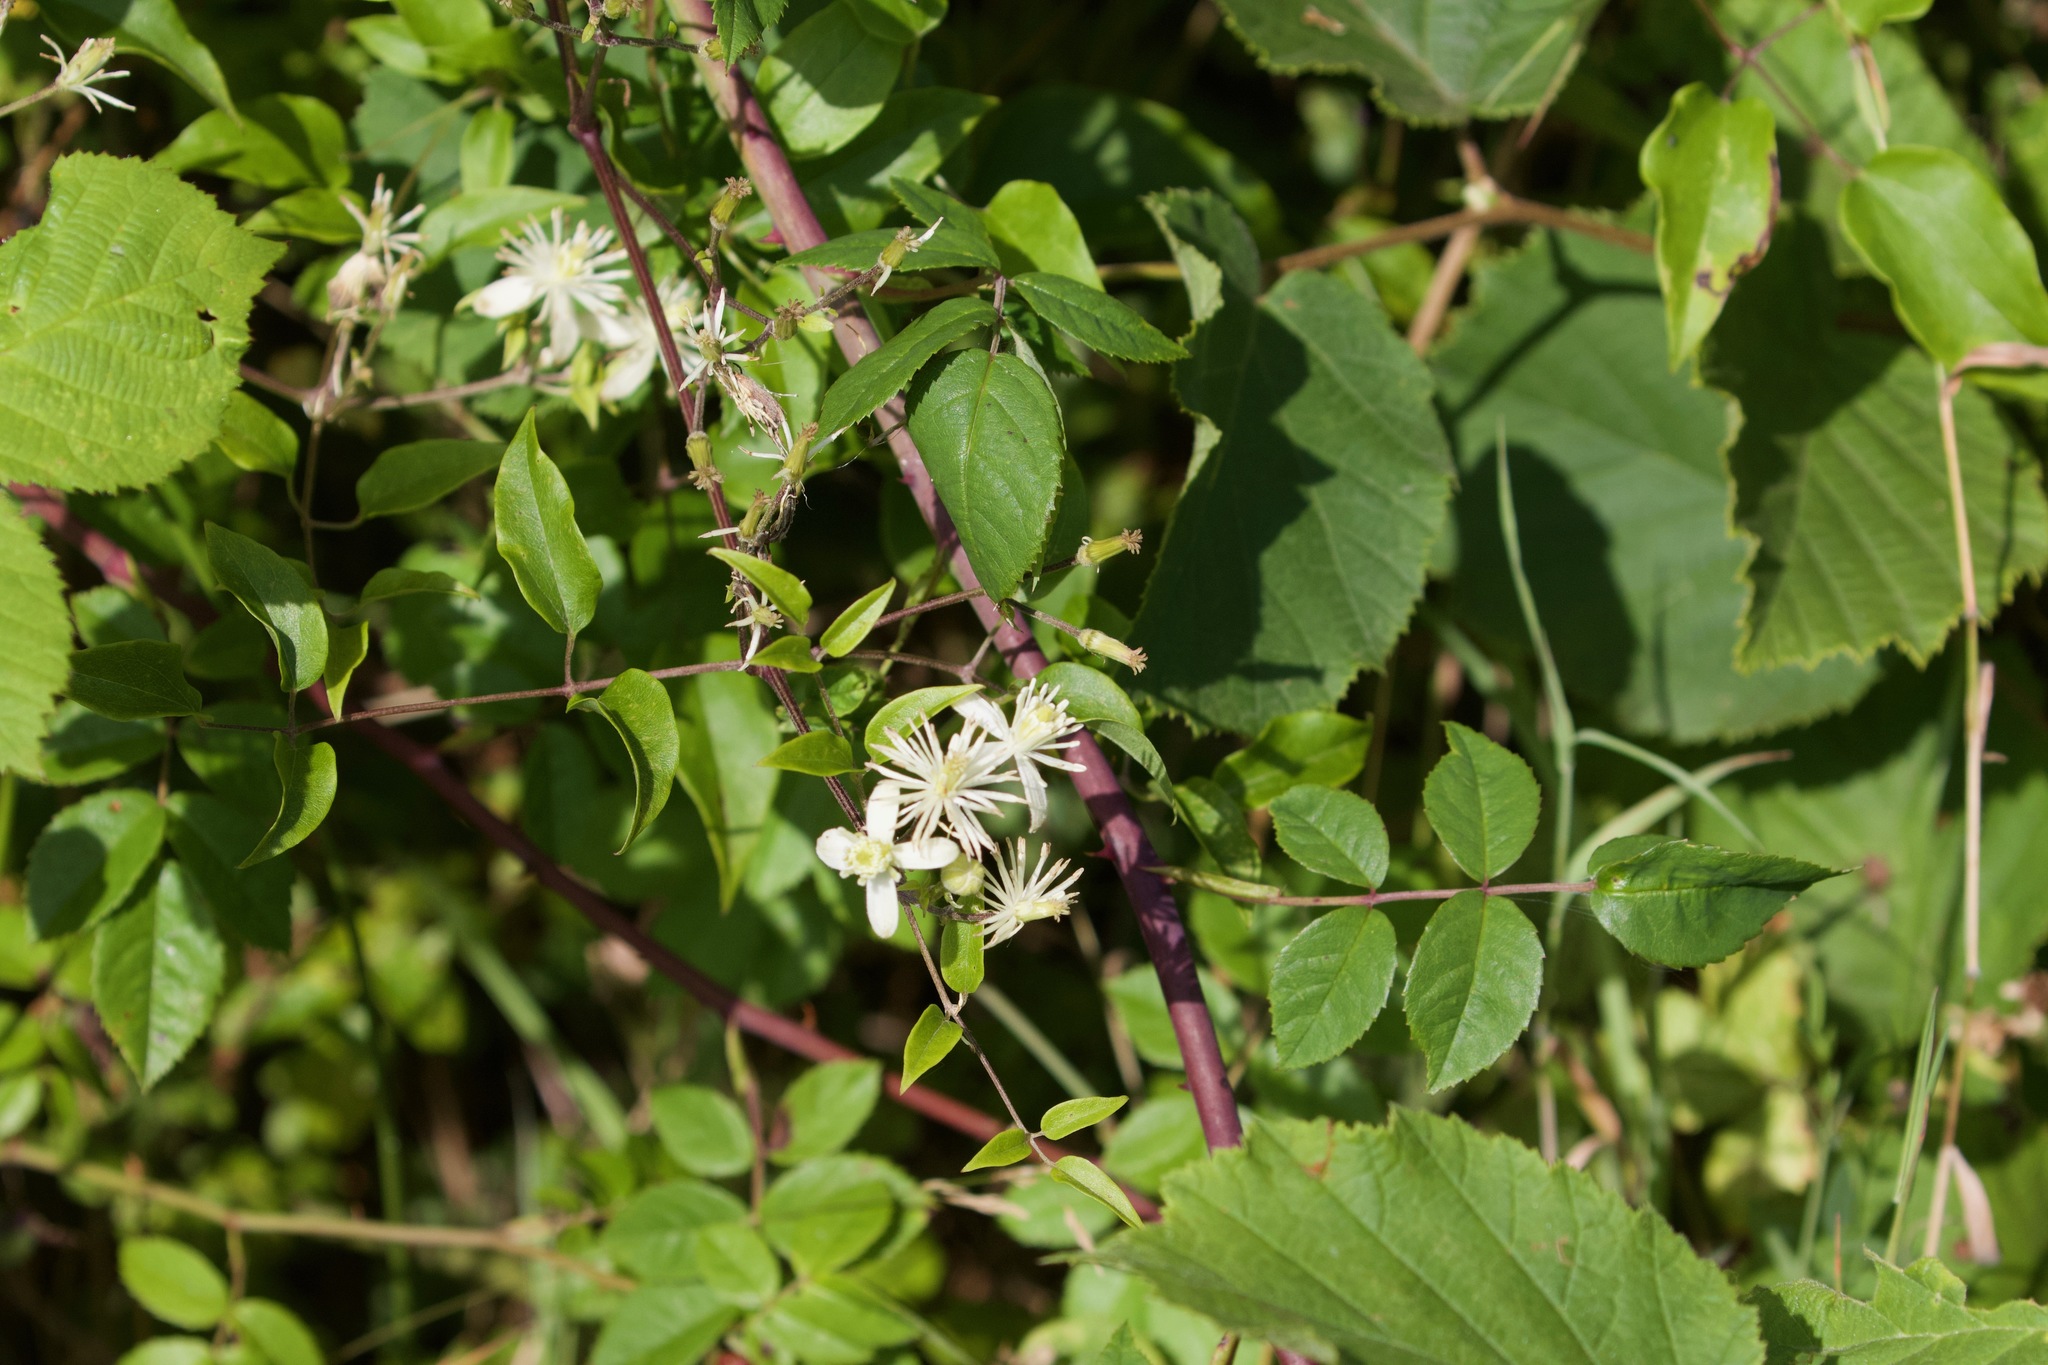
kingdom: Plantae
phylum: Tracheophyta
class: Magnoliopsida
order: Ranunculales
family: Ranunculaceae
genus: Clematis
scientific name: Clematis vitalba
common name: Evergreen clematis
